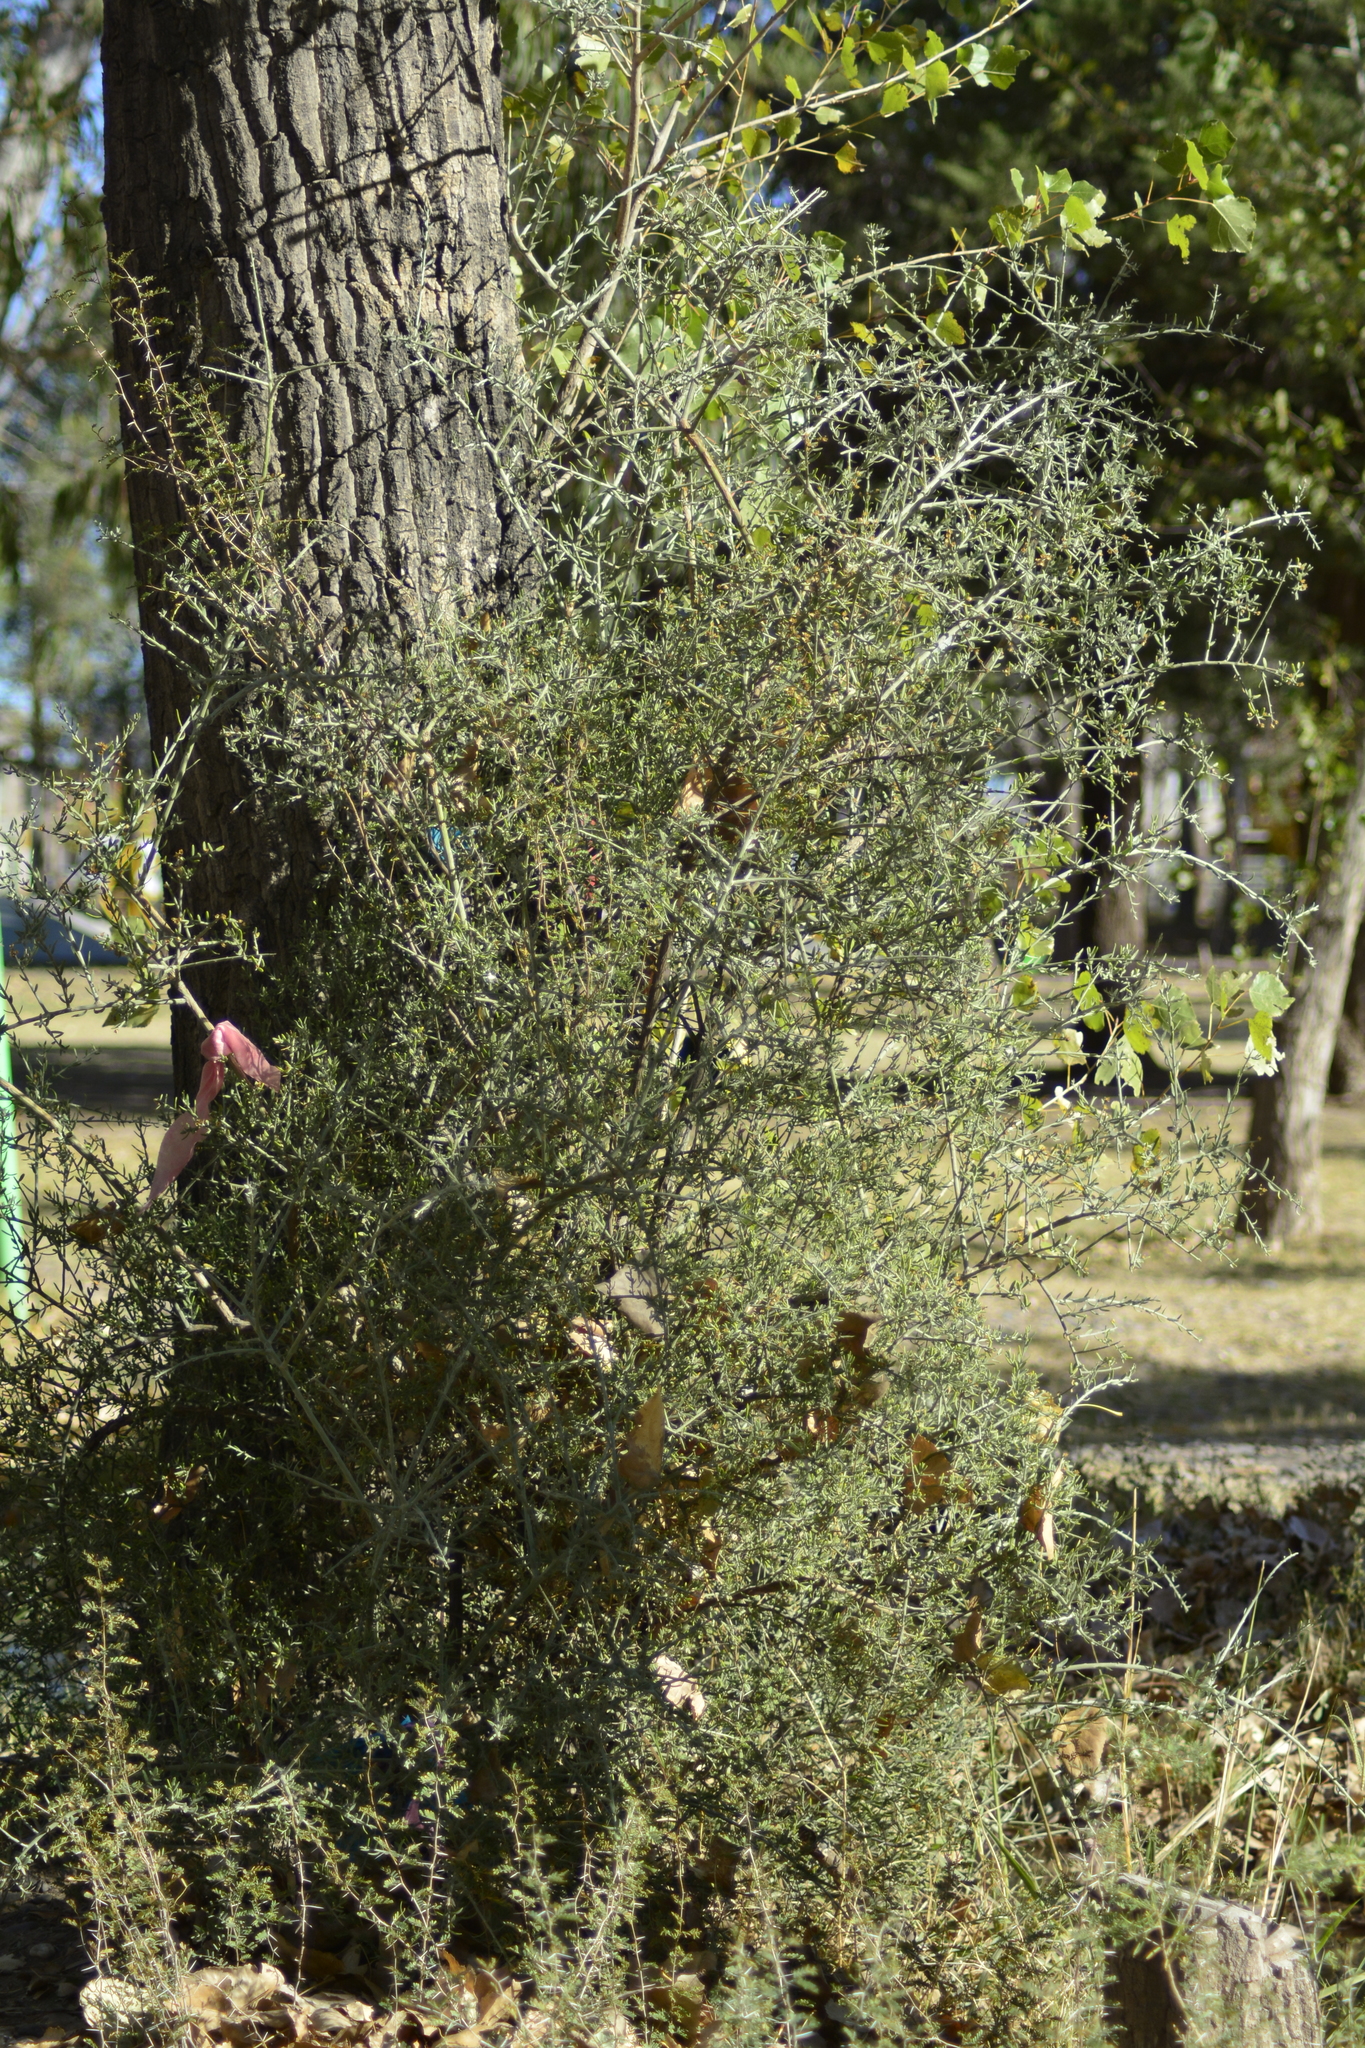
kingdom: Plantae
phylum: Tracheophyta
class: Magnoliopsida
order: Asterales
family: Asteraceae
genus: Cyclolepis
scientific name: Cyclolepis genistoides
